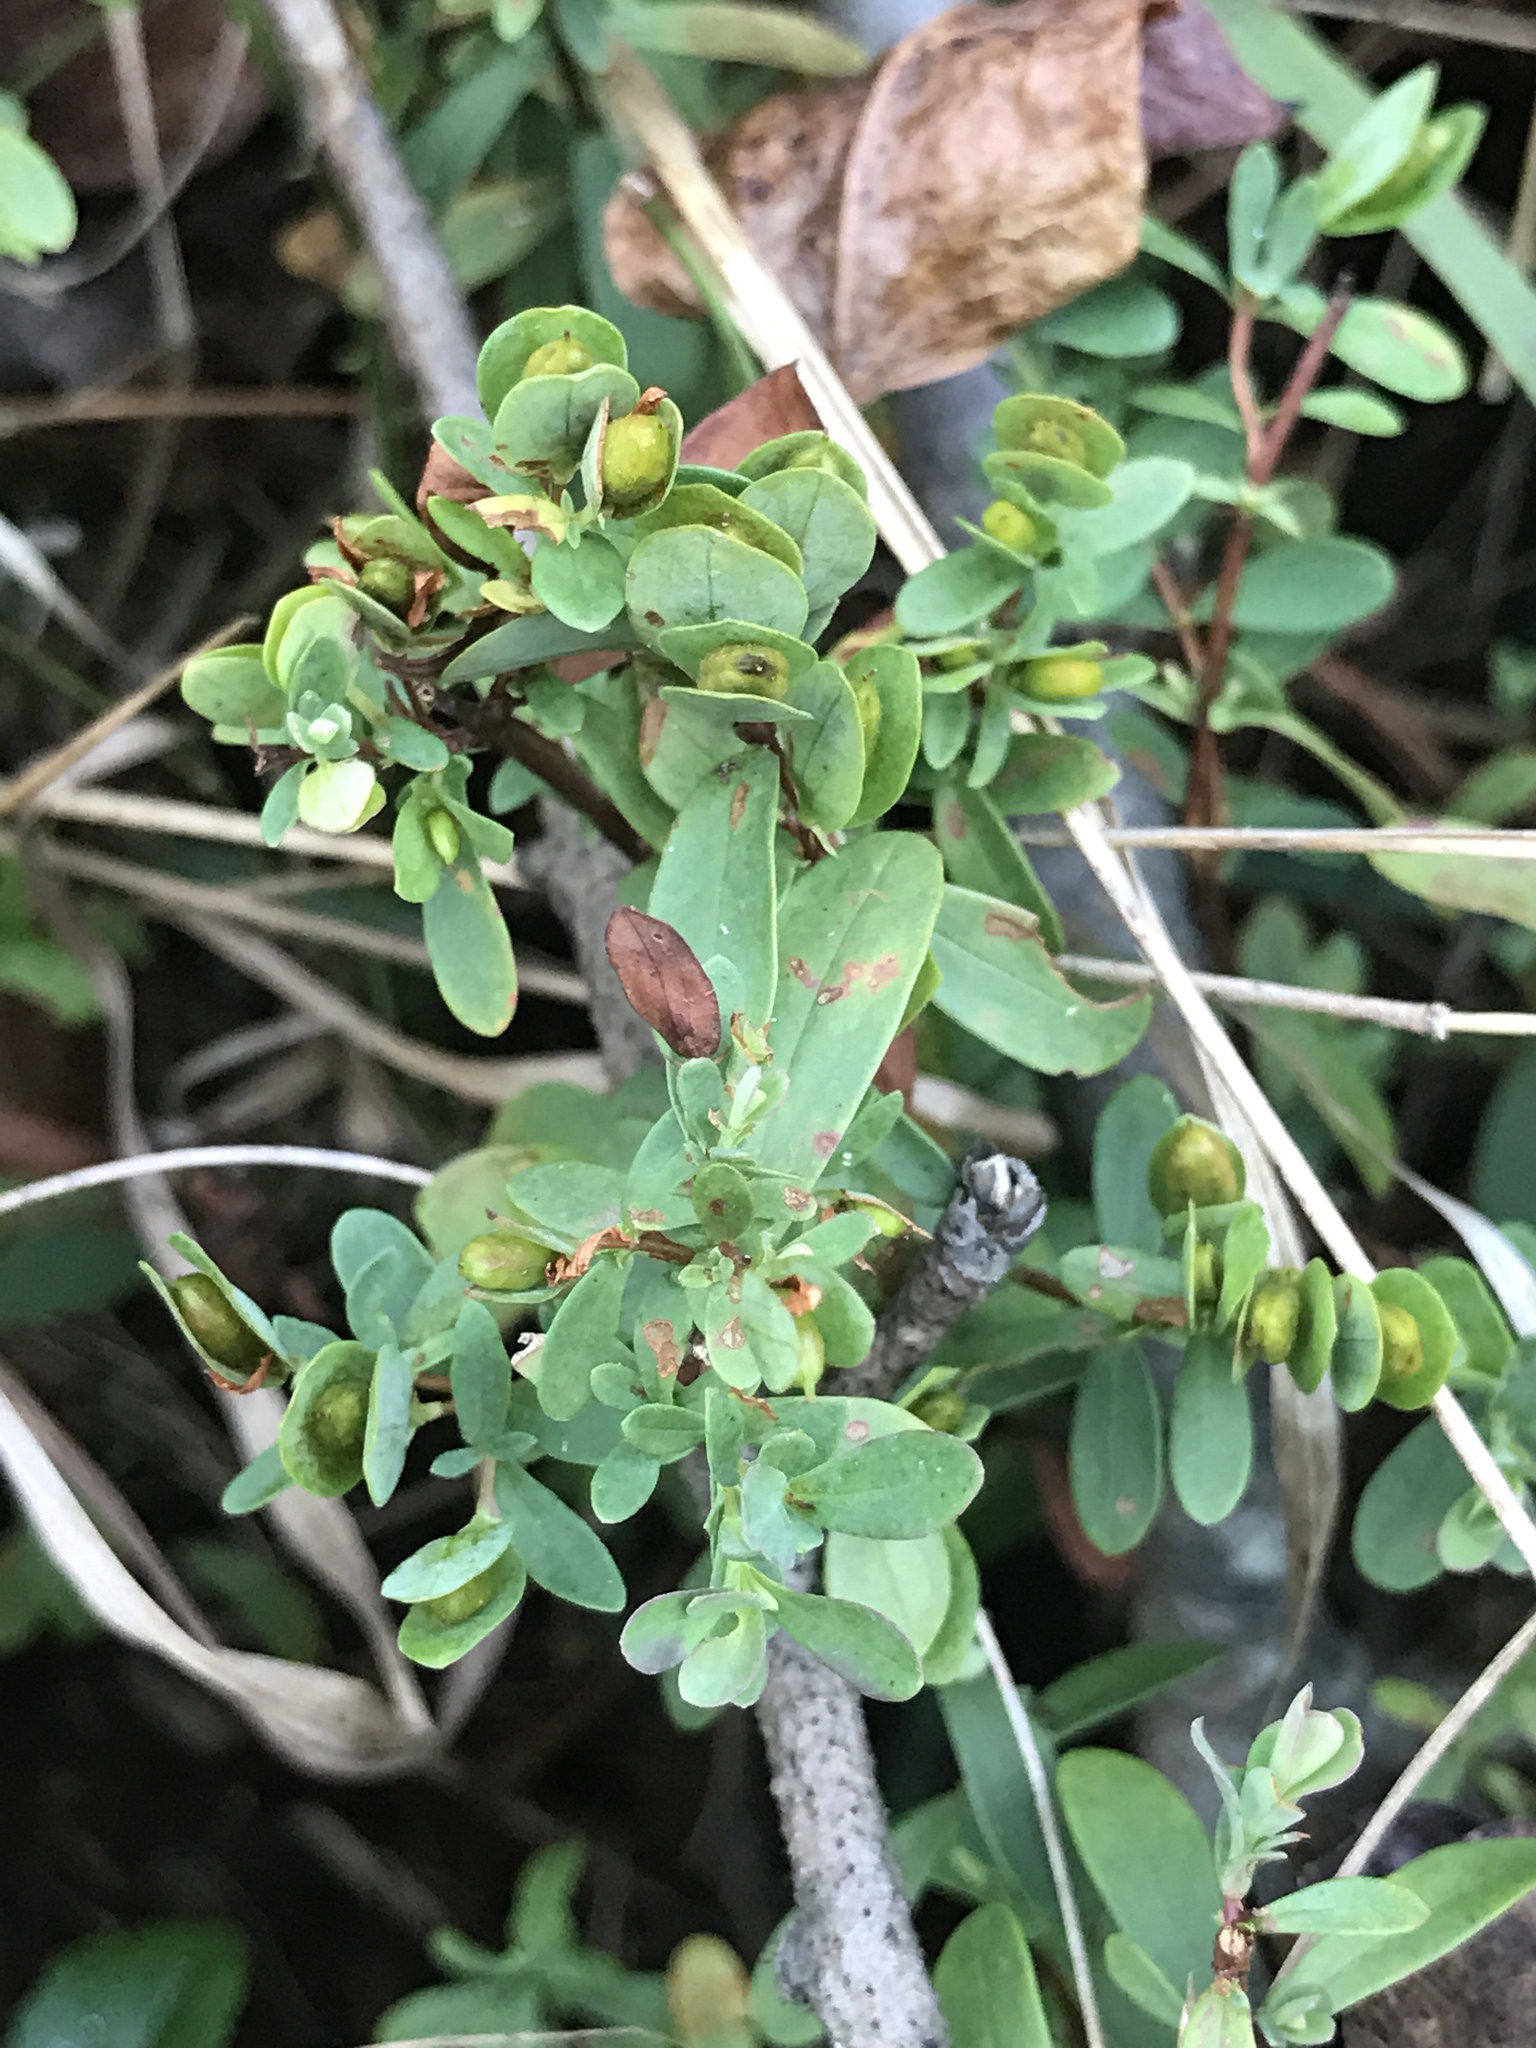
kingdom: Plantae
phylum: Tracheophyta
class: Magnoliopsida
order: Malpighiales
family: Hypericaceae
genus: Hypericum
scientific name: Hypericum hypericoides
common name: St. andrew's cross
